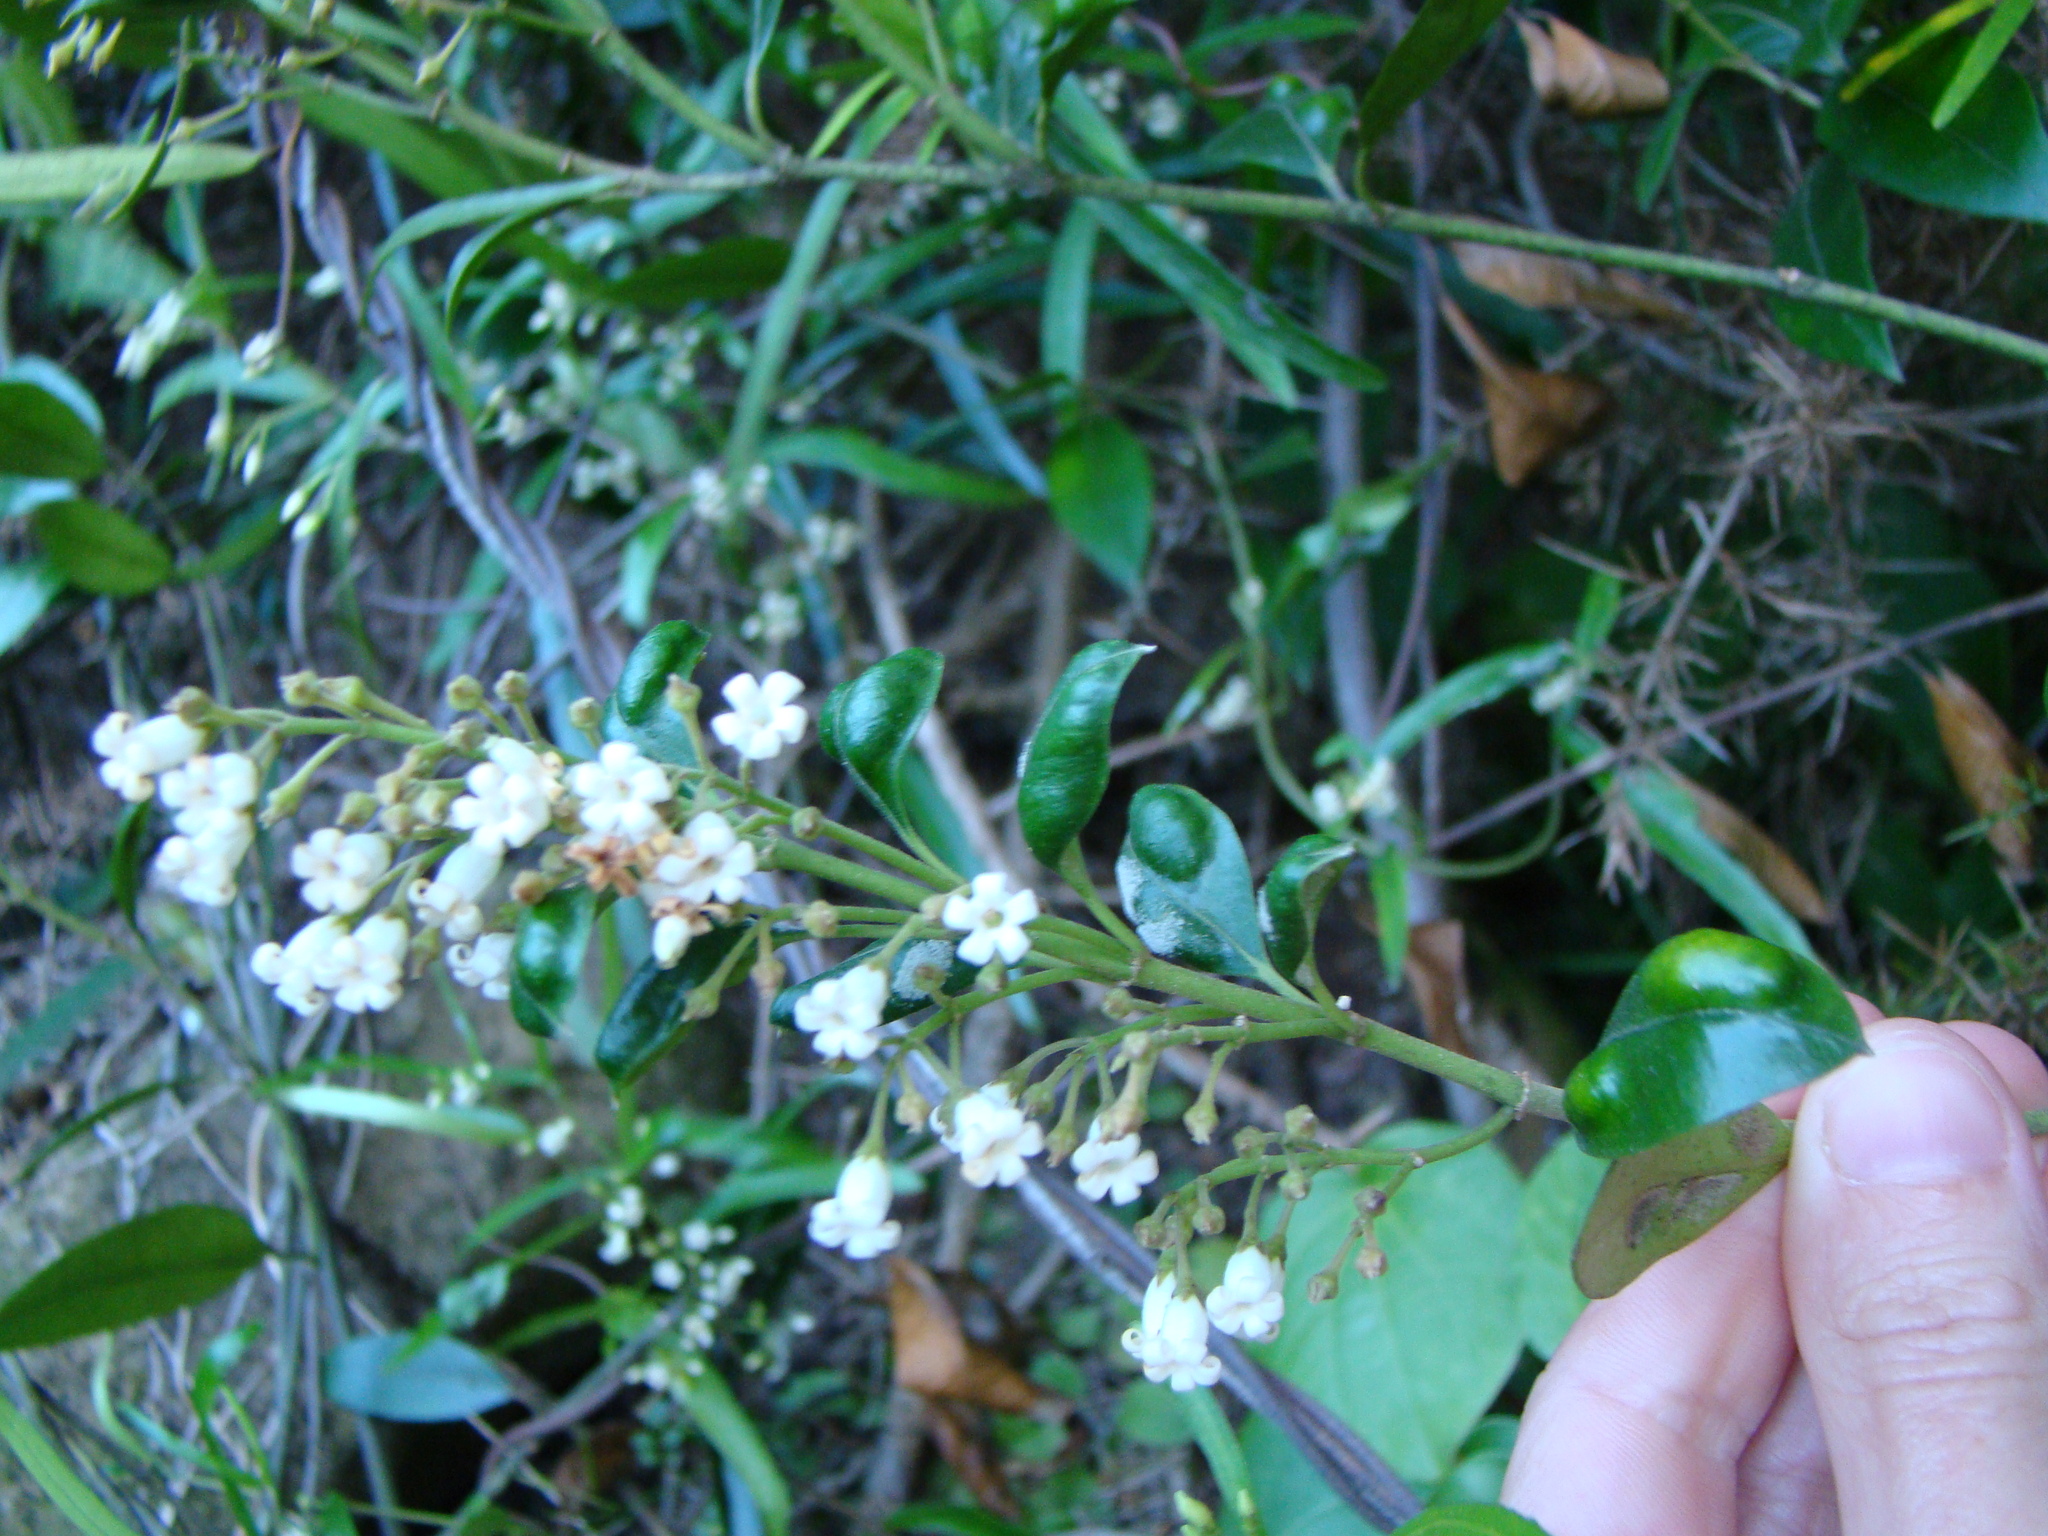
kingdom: Plantae
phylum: Tracheophyta
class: Magnoliopsida
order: Gentianales
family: Apocynaceae
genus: Parsonsia
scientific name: Parsonsia heterophylla
